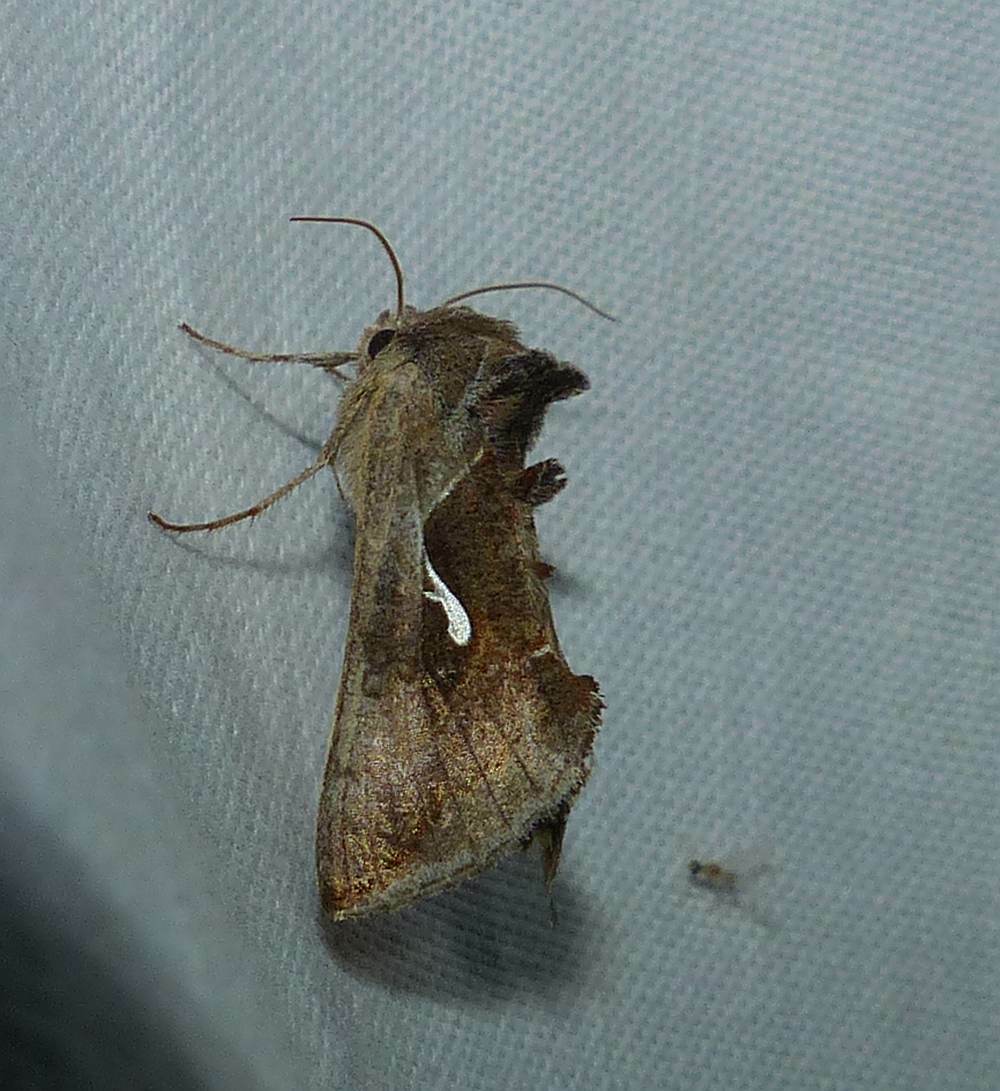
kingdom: Animalia
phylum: Arthropoda
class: Insecta
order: Lepidoptera
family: Noctuidae
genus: Anagrapha
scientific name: Anagrapha falcifera
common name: Celery looper
